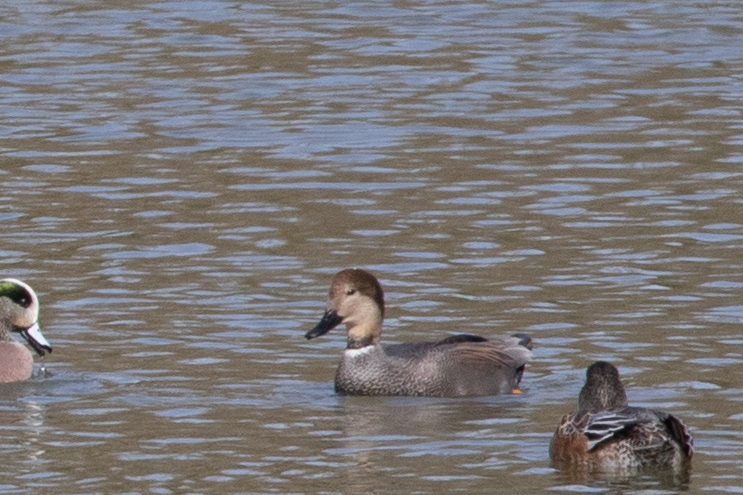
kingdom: Animalia
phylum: Chordata
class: Aves
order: Anseriformes
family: Anatidae
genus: Mareca
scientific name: Mareca strepera
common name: Gadwall
